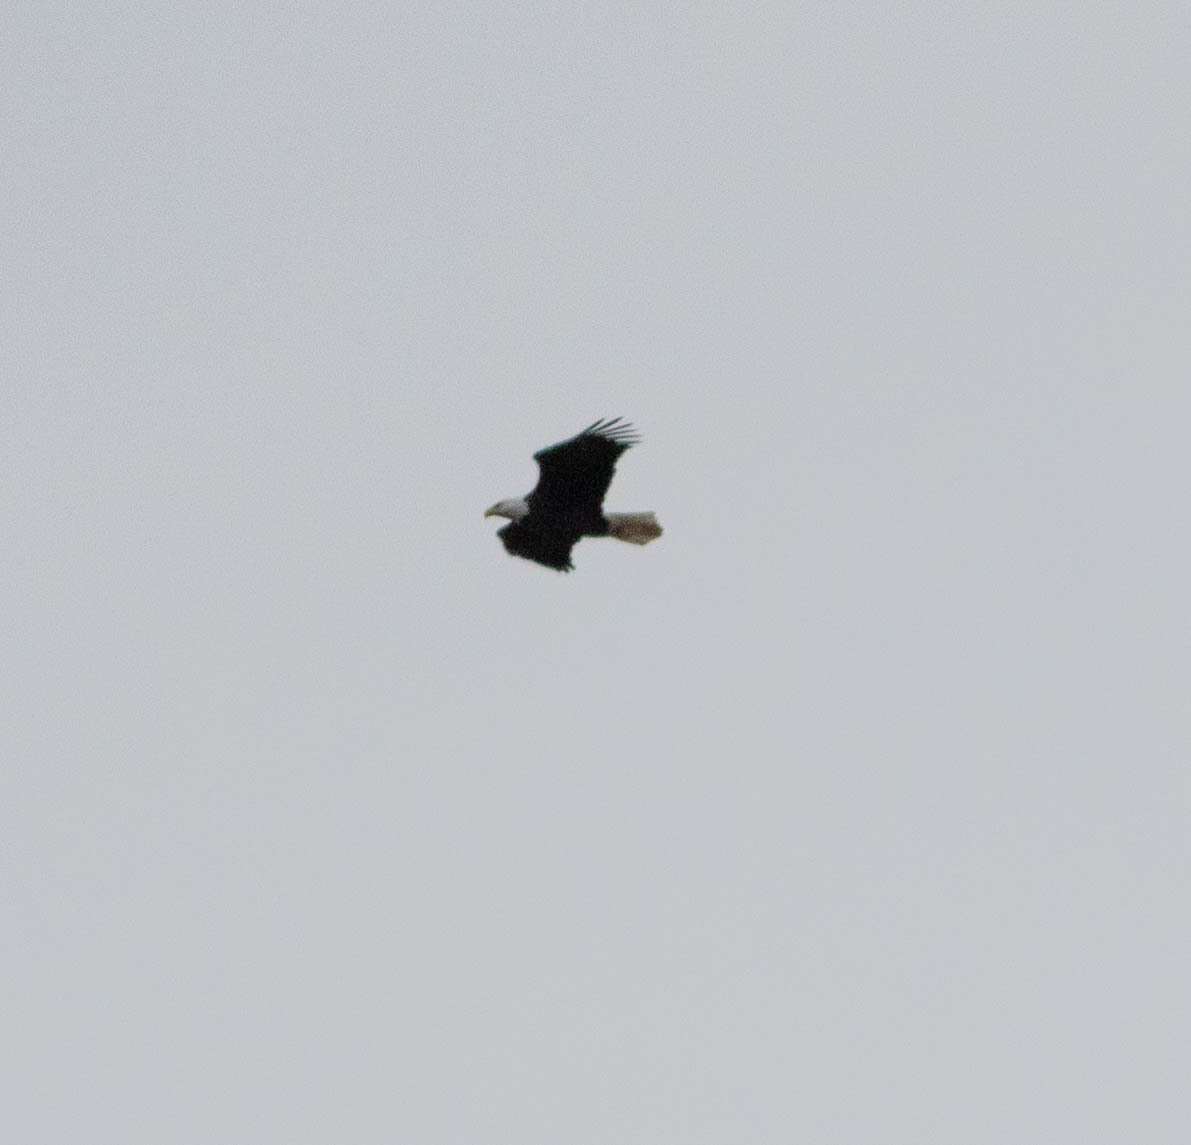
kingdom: Animalia
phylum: Chordata
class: Aves
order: Accipitriformes
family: Accipitridae
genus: Haliaeetus
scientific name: Haliaeetus leucocephalus
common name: Bald eagle
